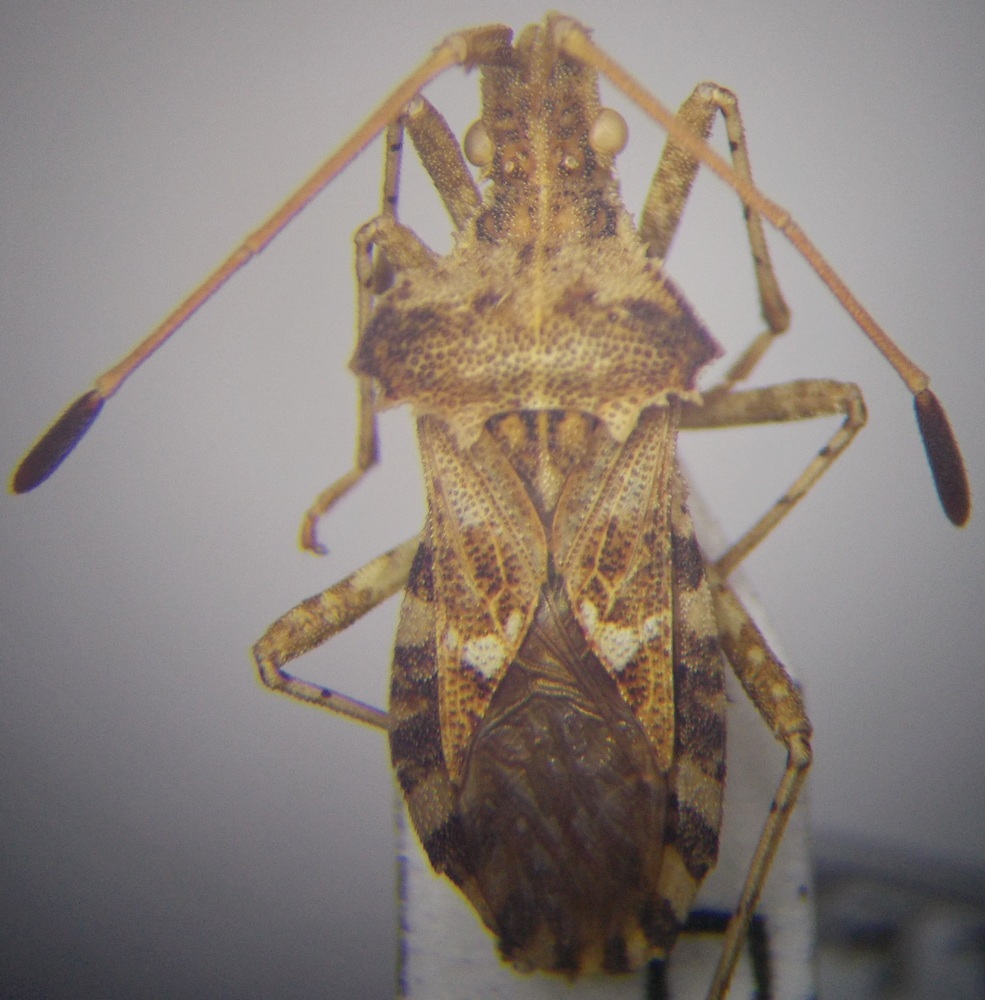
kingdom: Animalia
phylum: Arthropoda
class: Insecta
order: Hemiptera
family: Coreidae
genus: Centrocoris
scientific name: Centrocoris spiniger
